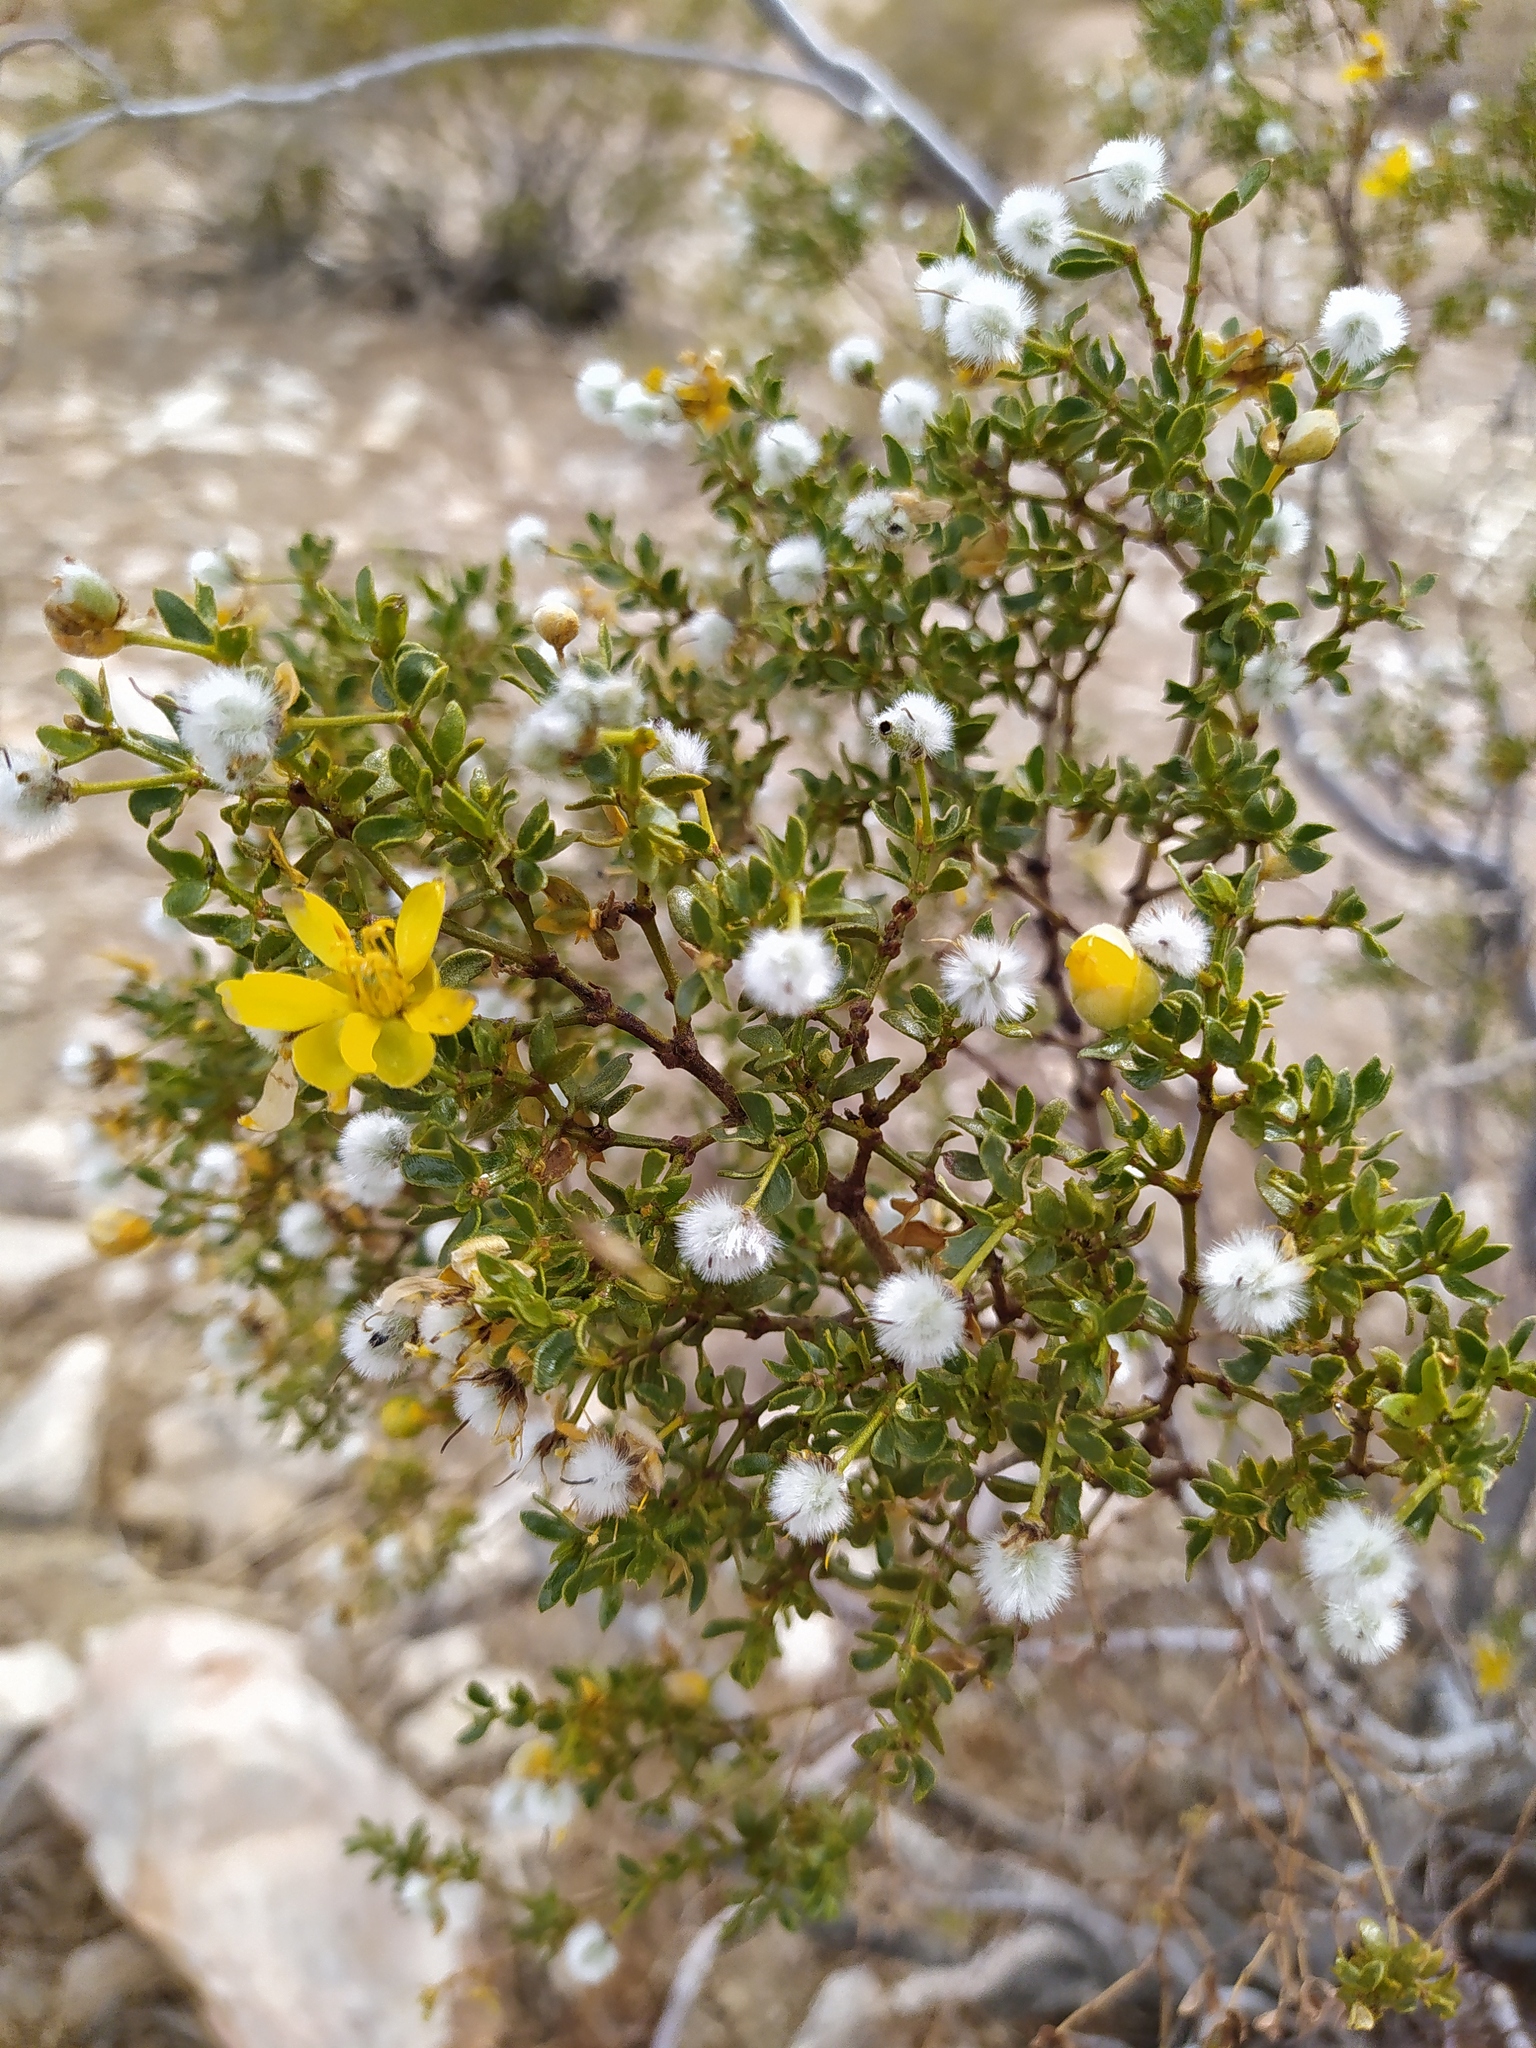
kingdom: Plantae
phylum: Tracheophyta
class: Magnoliopsida
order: Zygophyllales
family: Zygophyllaceae
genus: Larrea
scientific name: Larrea tridentata
